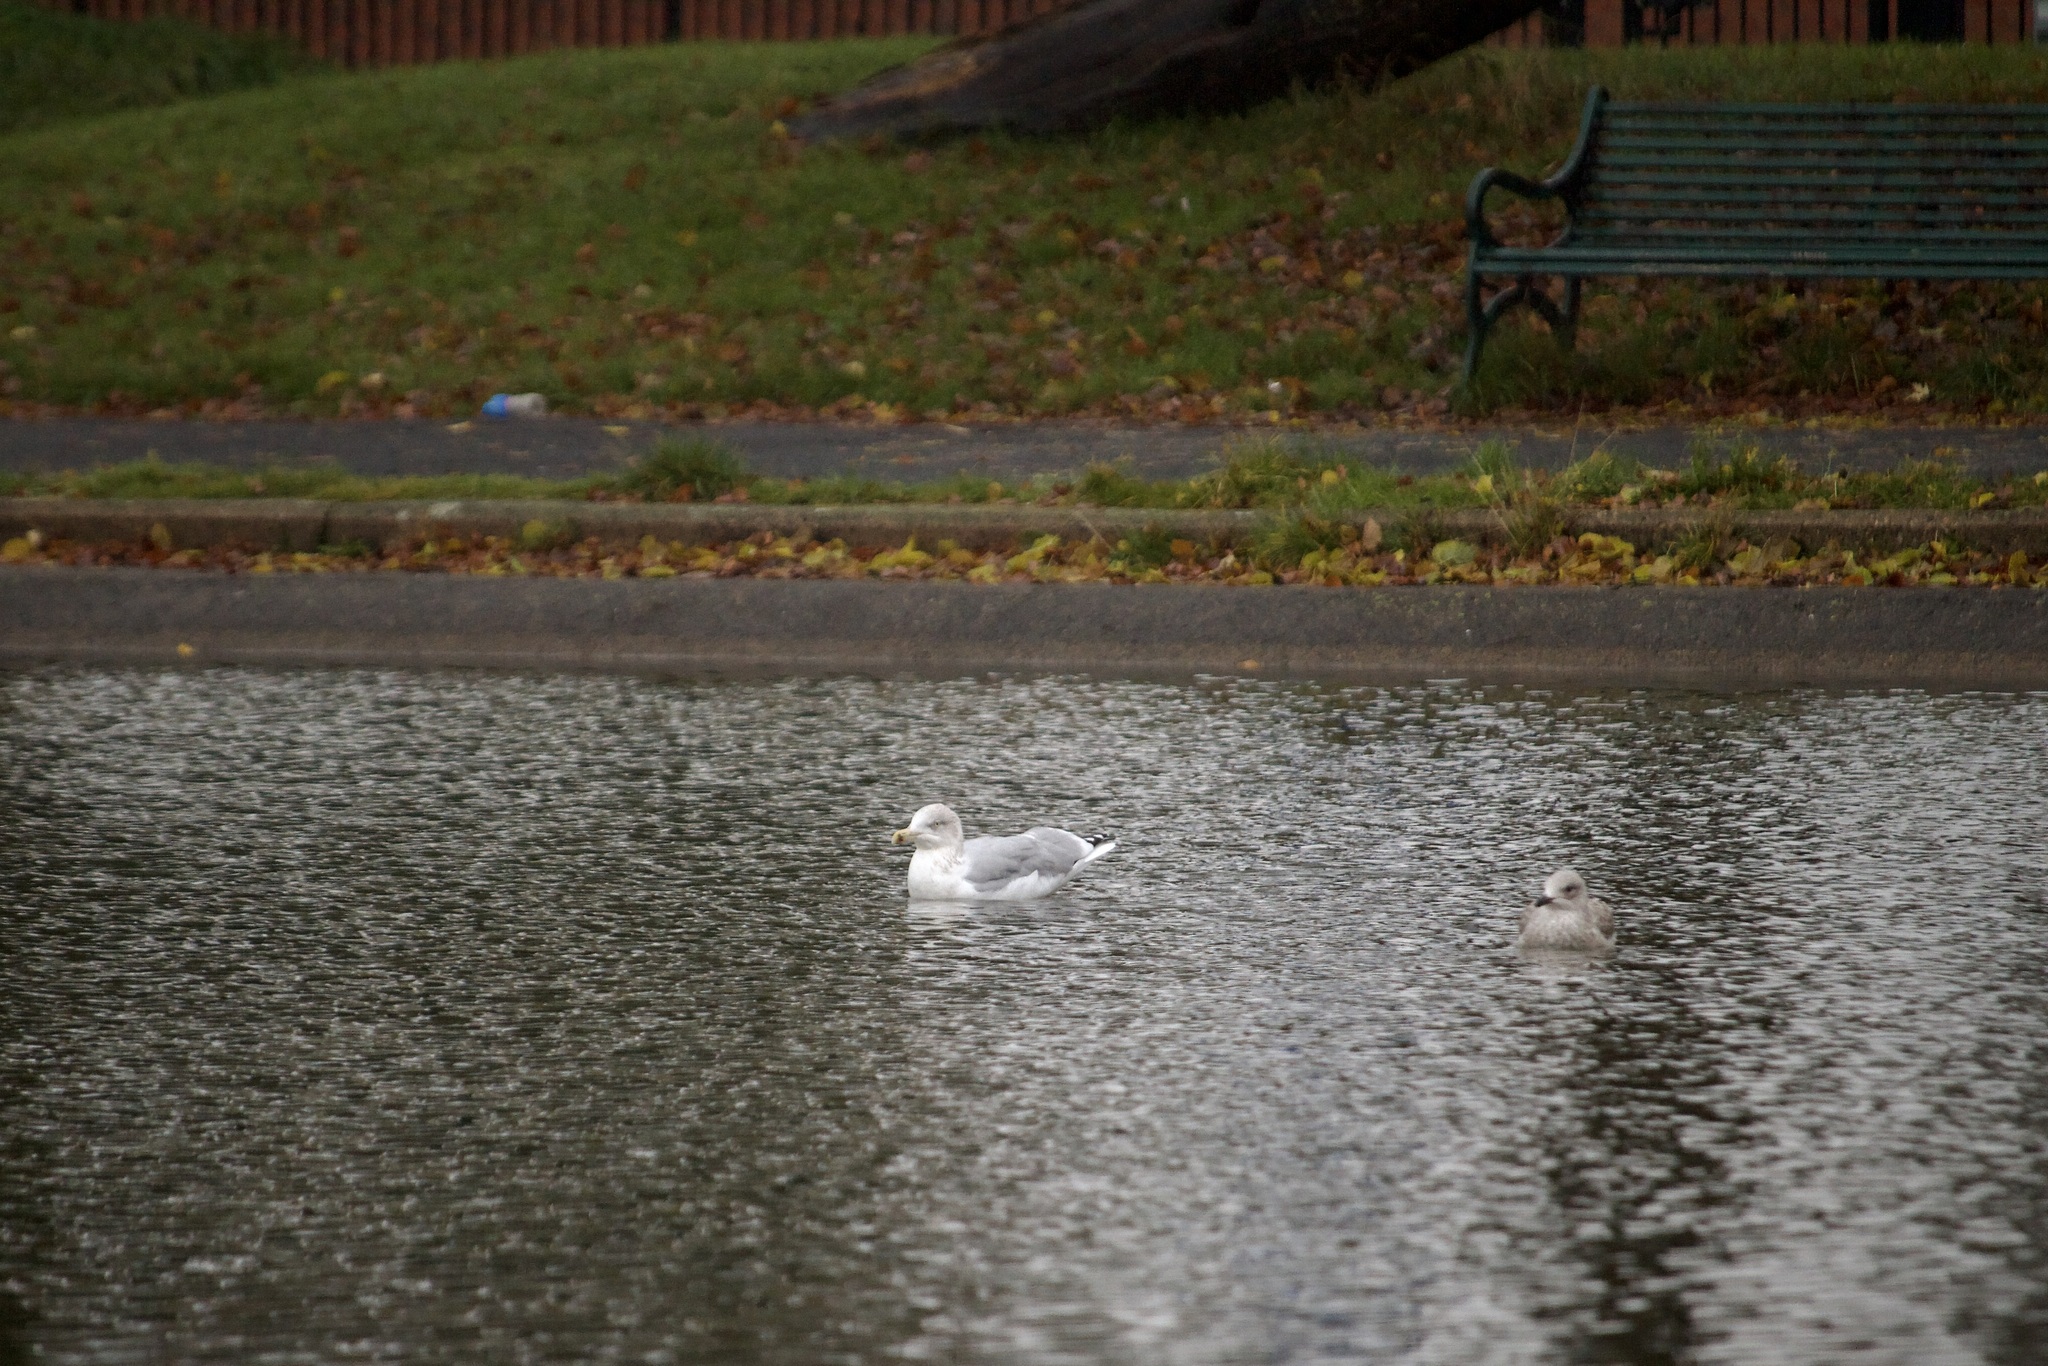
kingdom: Animalia
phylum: Chordata
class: Aves
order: Charadriiformes
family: Laridae
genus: Larus
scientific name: Larus argentatus
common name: Herring gull
